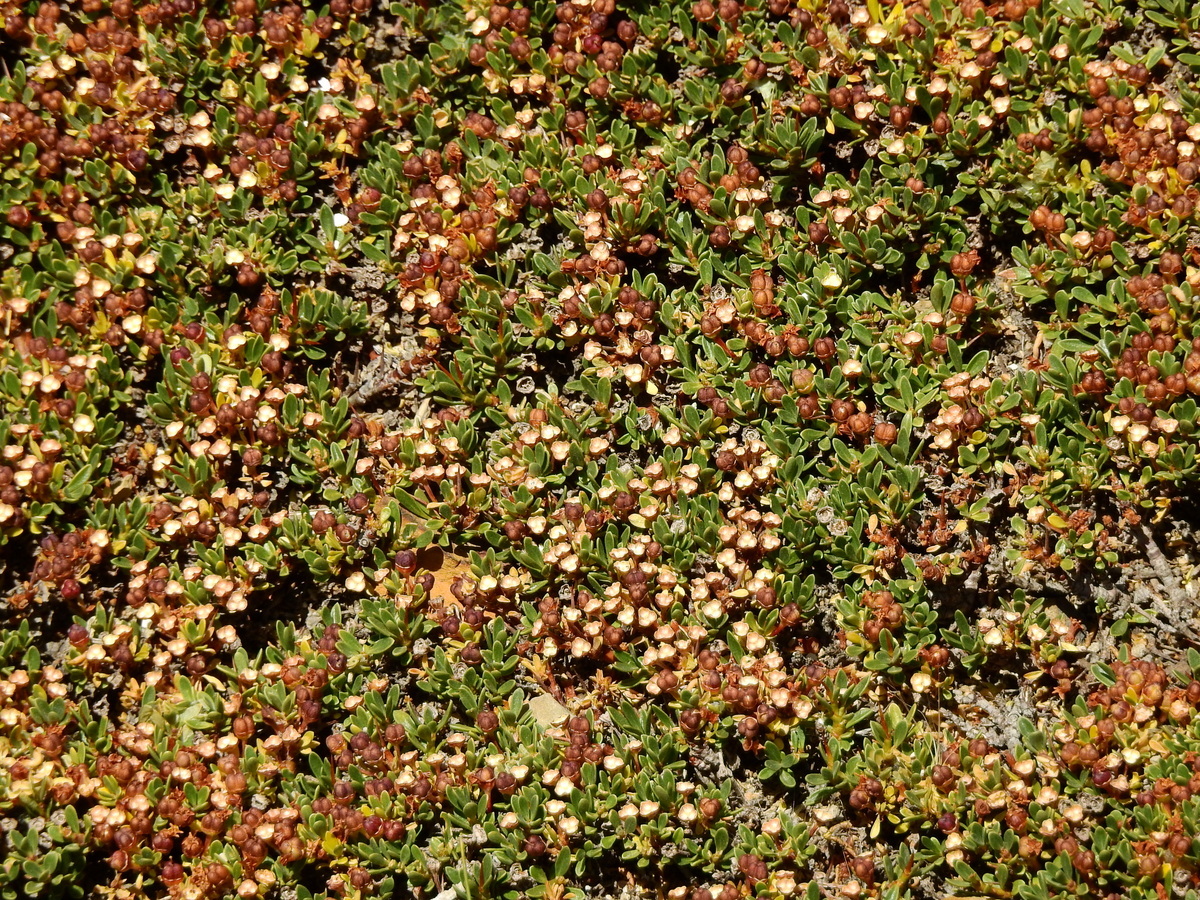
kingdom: Plantae
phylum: Tracheophyta
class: Magnoliopsida
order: Rosales
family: Rhamnaceae
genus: Discaria
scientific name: Discaria nana
